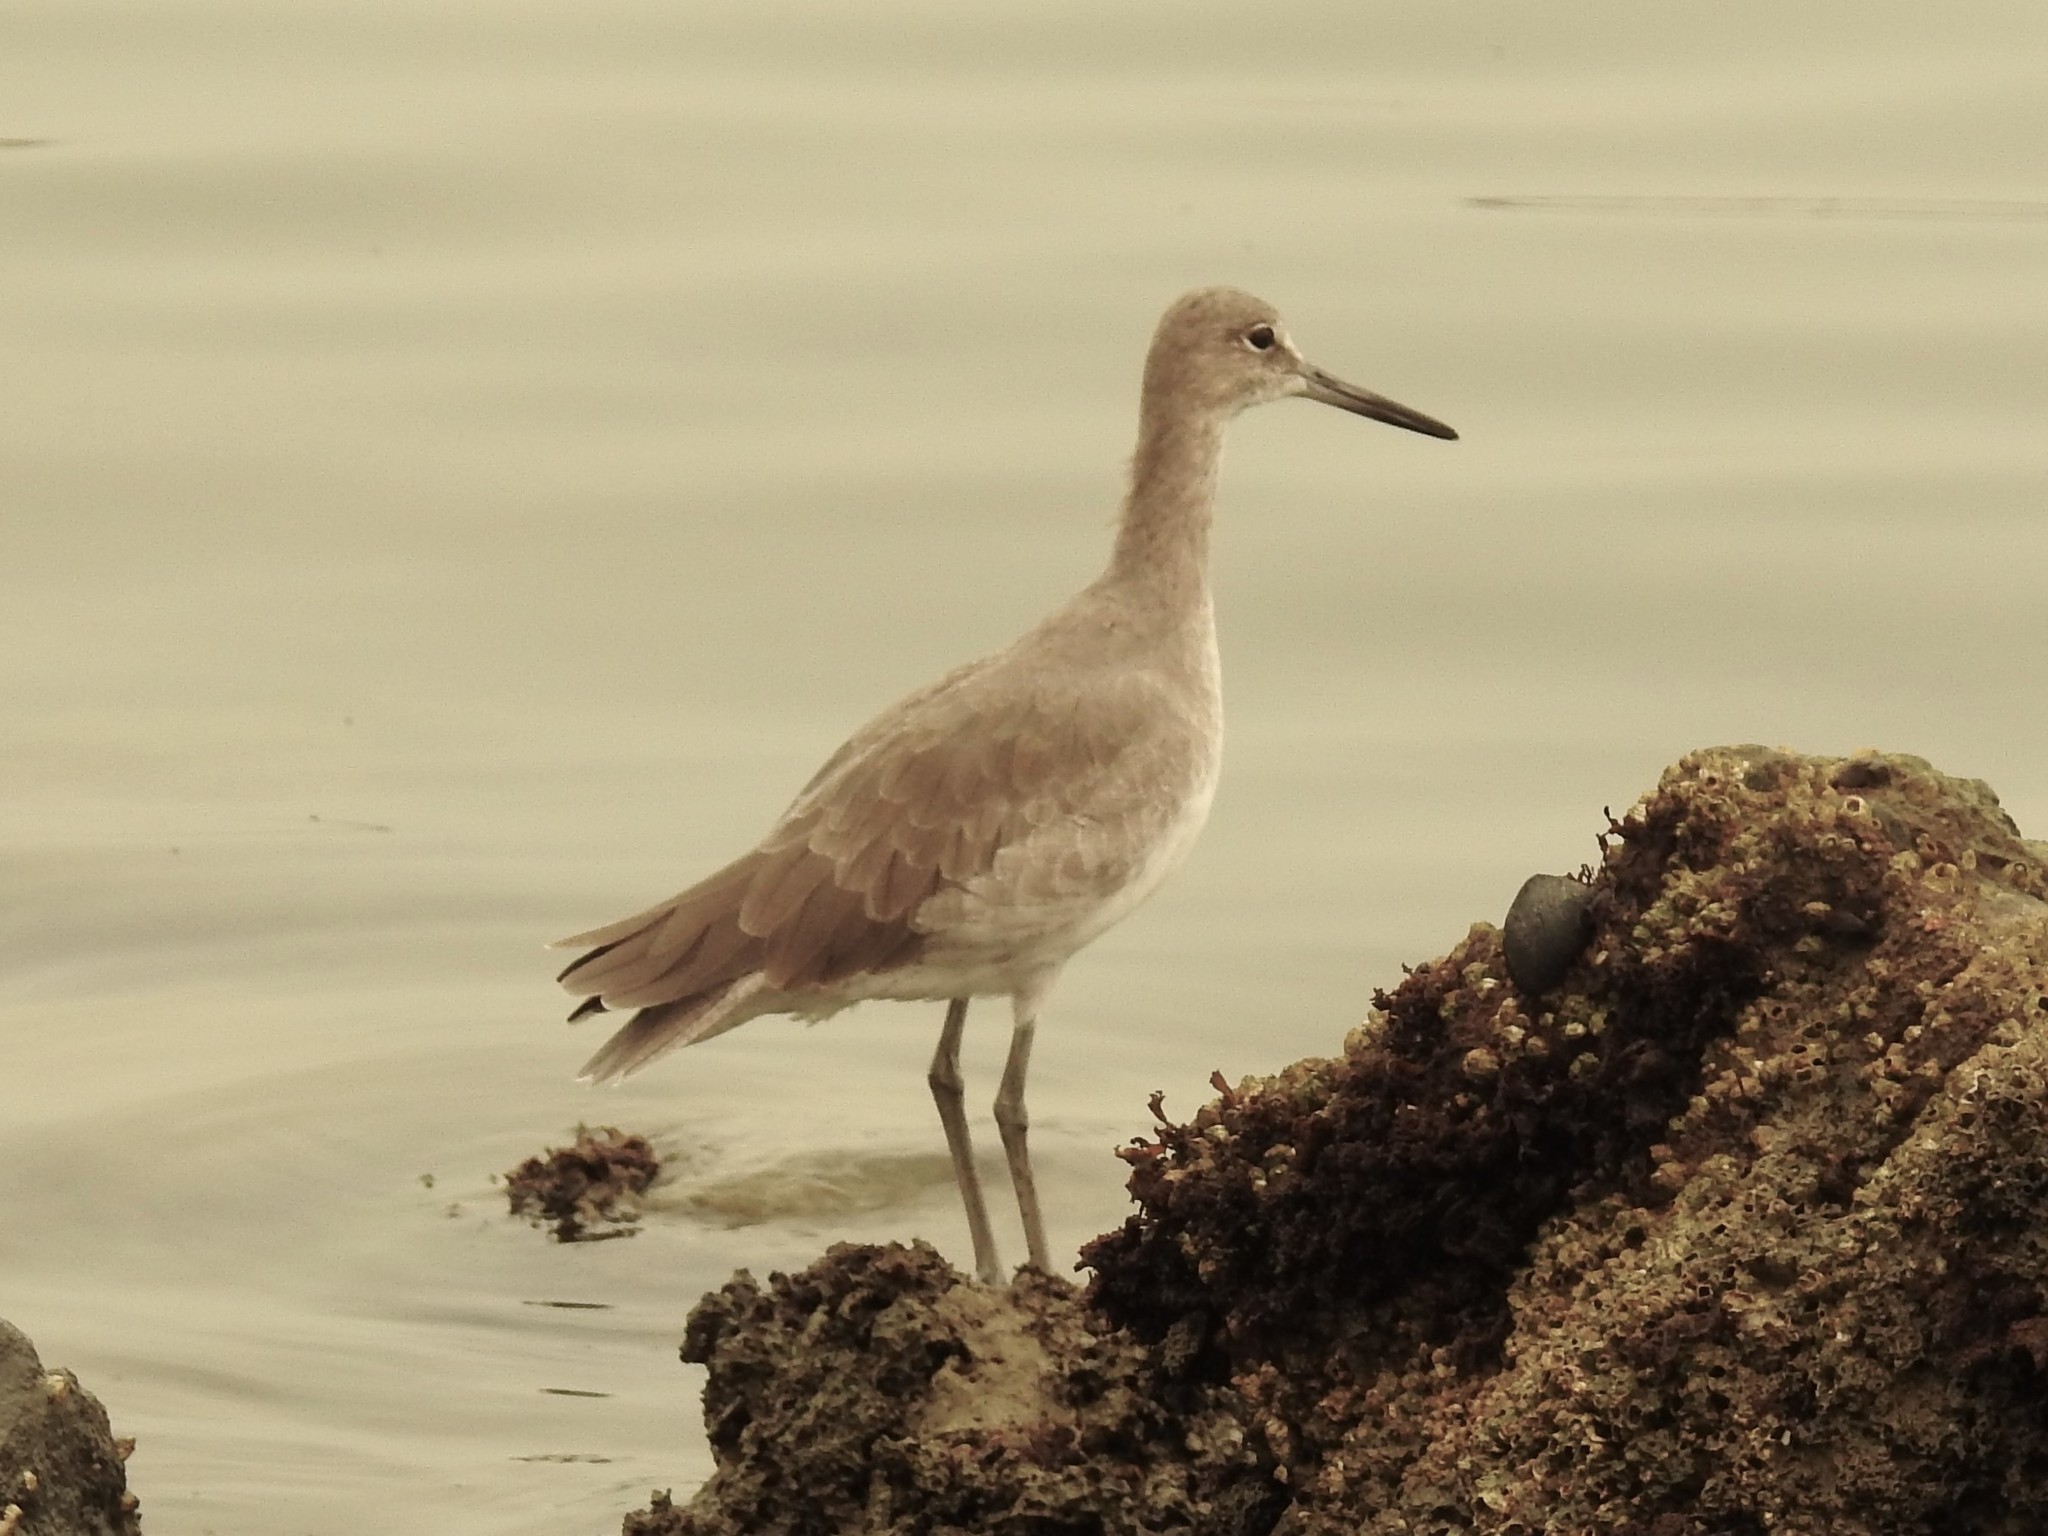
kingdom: Animalia
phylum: Chordata
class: Aves
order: Charadriiformes
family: Scolopacidae
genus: Tringa
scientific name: Tringa semipalmata
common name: Willet
